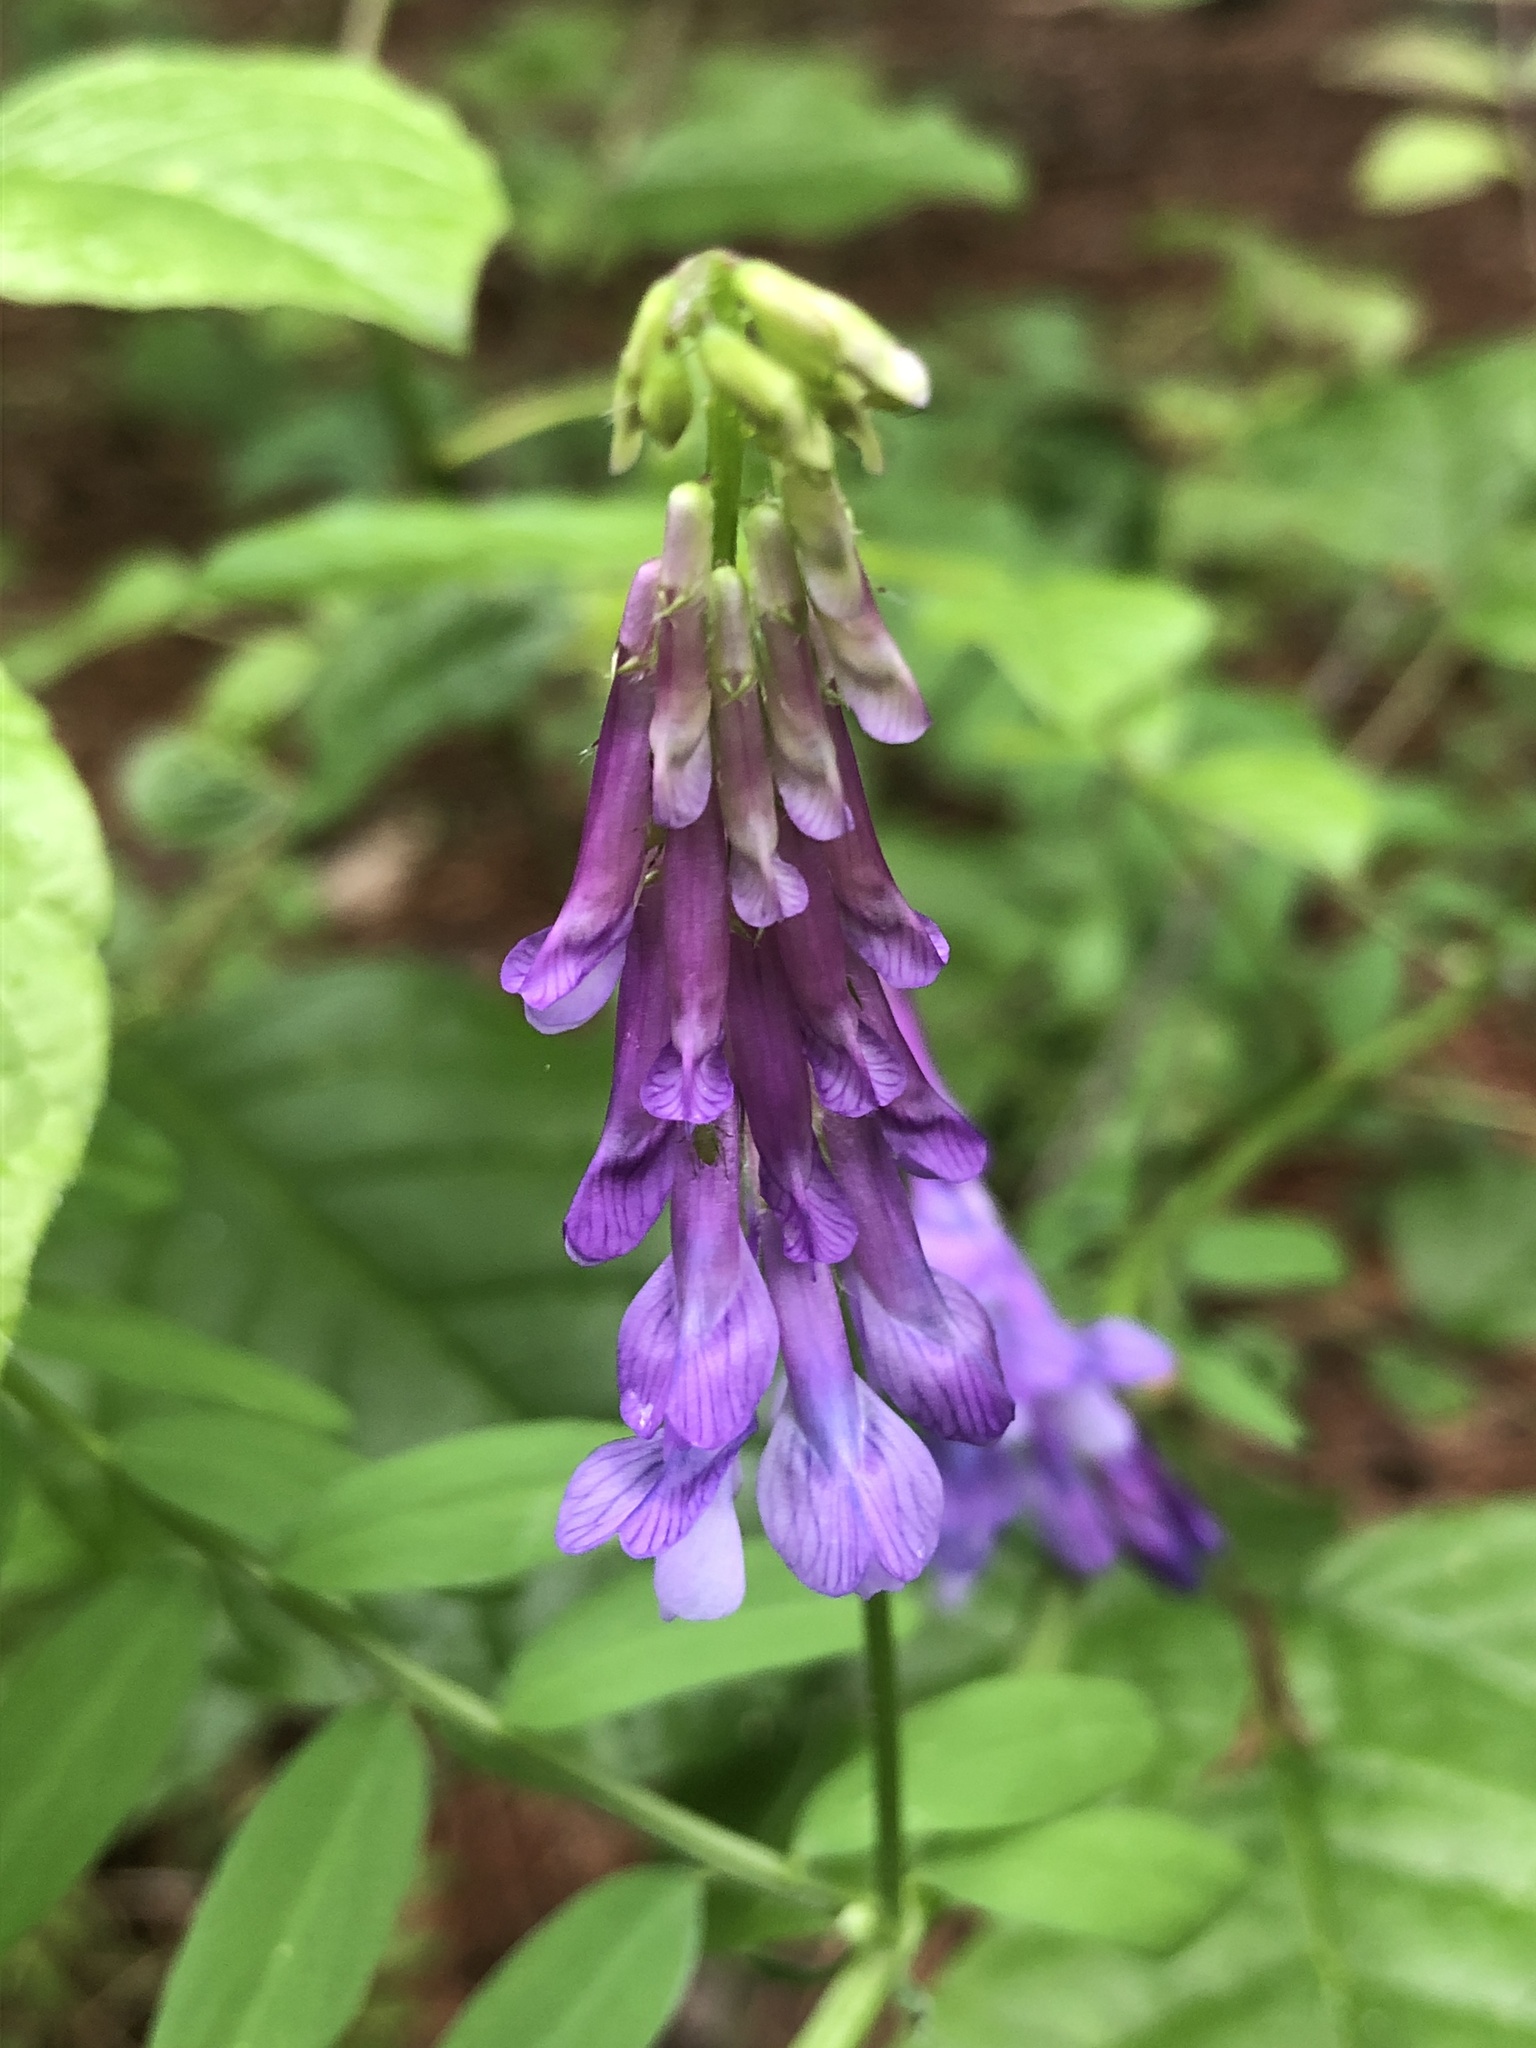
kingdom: Plantae
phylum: Tracheophyta
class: Magnoliopsida
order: Fabales
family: Fabaceae
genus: Vicia
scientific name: Vicia villosa
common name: Fodder vetch
